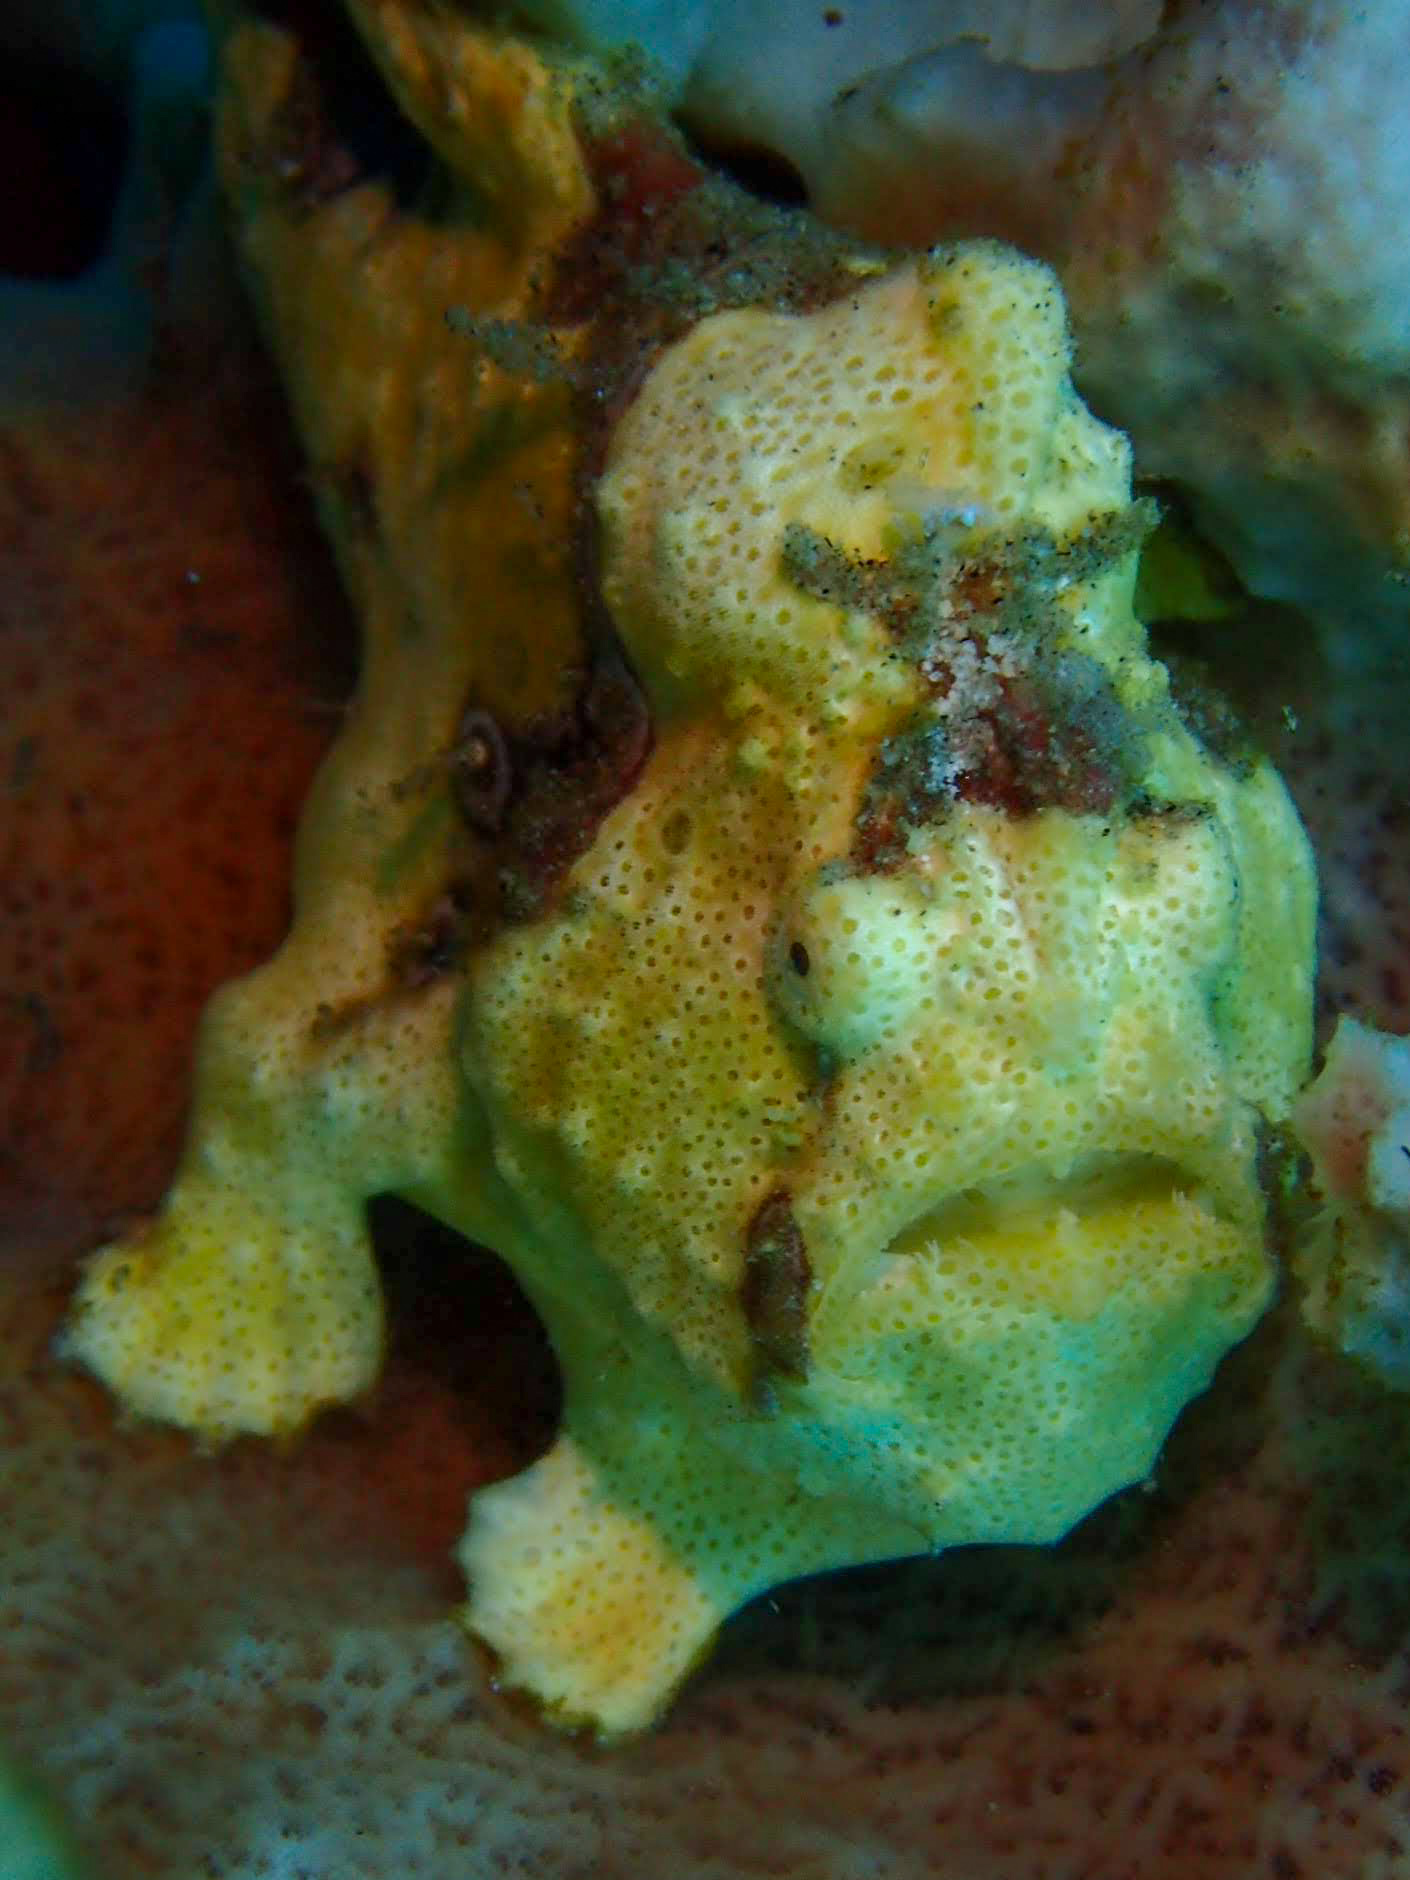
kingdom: Animalia
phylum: Chordata
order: Lophiiformes
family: Antennariidae
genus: Antennarius
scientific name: Antennarius pictus
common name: Painted frogfish
